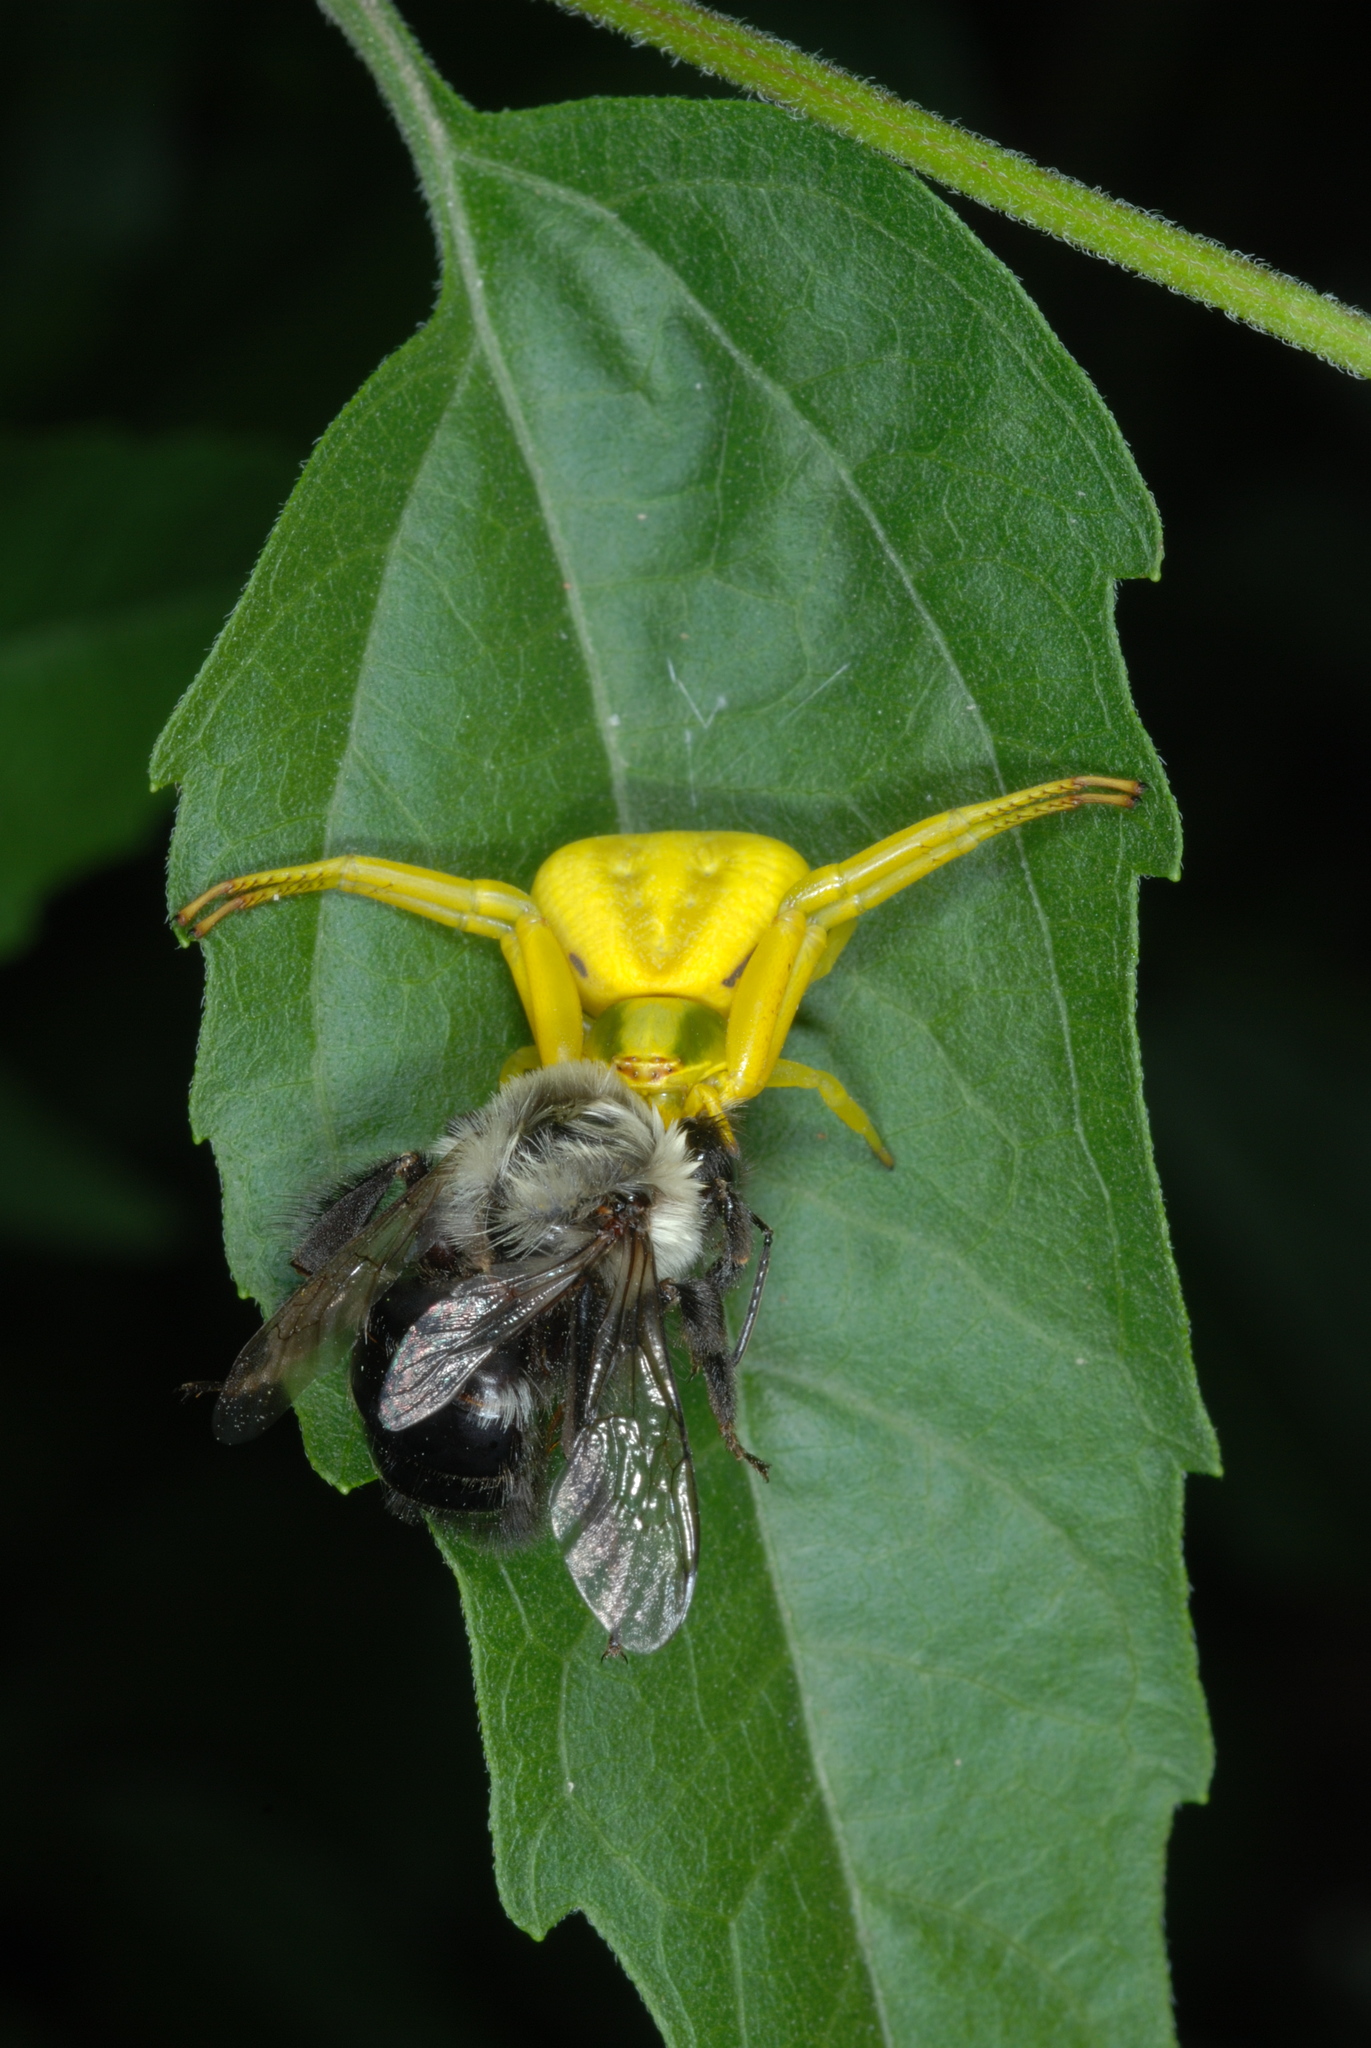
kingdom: Animalia
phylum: Arthropoda
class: Arachnida
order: Araneae
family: Thomisidae
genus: Misumenoides
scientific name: Misumenoides formosipes
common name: White-banded crab spider
